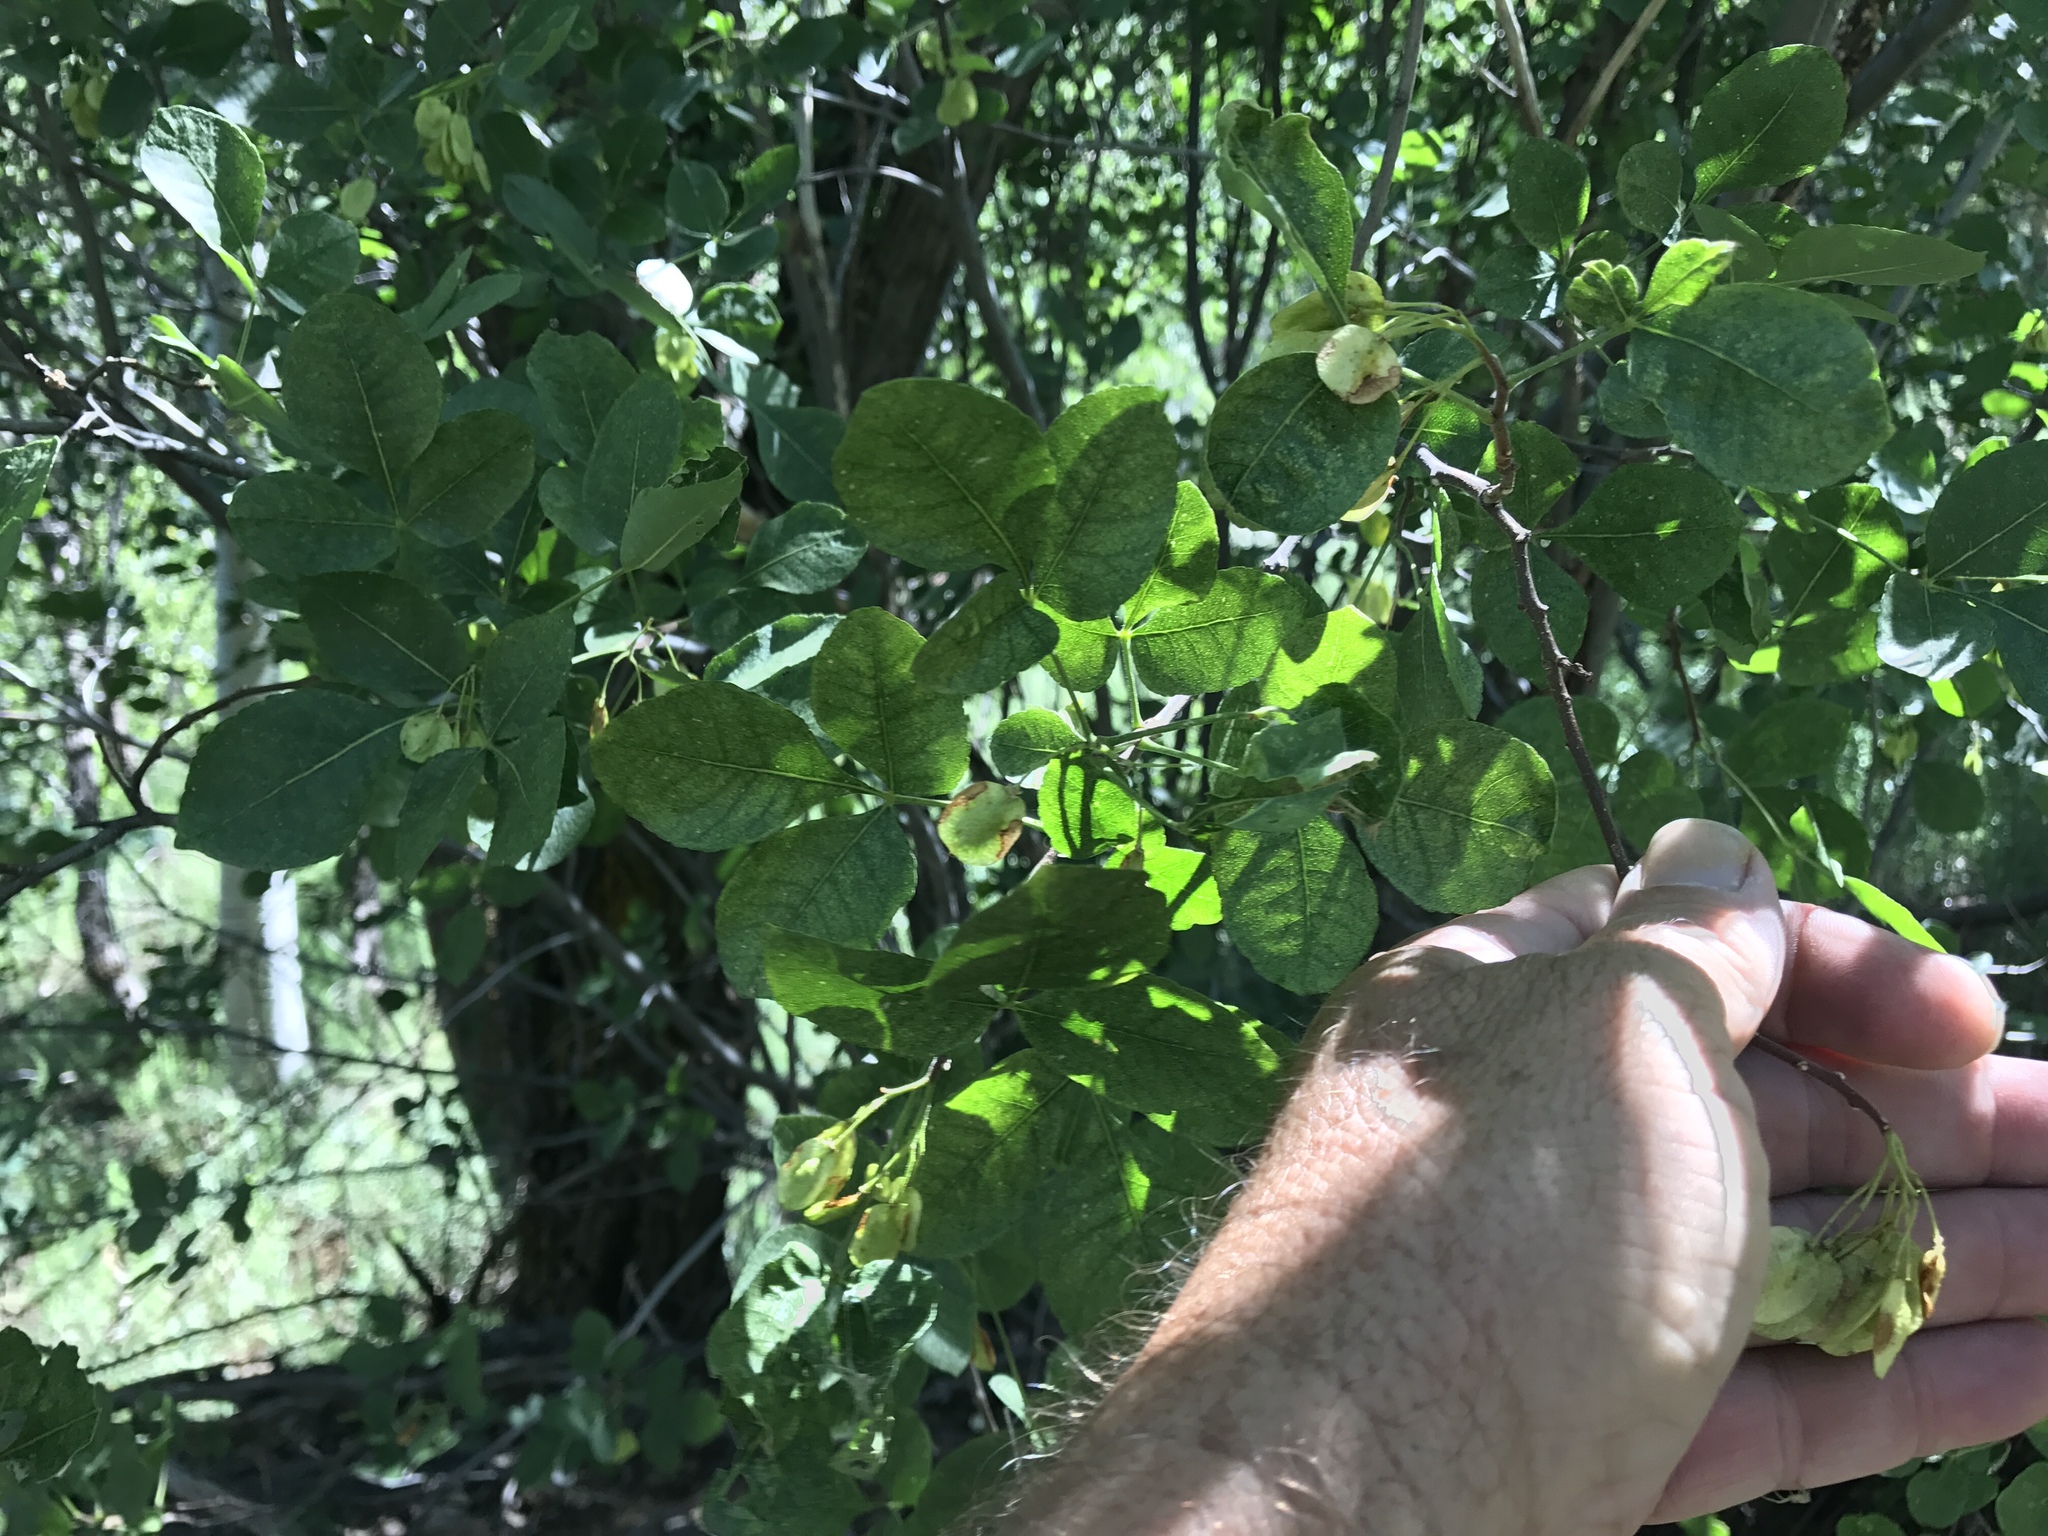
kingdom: Plantae
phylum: Tracheophyta
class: Magnoliopsida
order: Sapindales
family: Rutaceae
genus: Ptelea
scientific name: Ptelea trifoliata
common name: Common hop-tree
